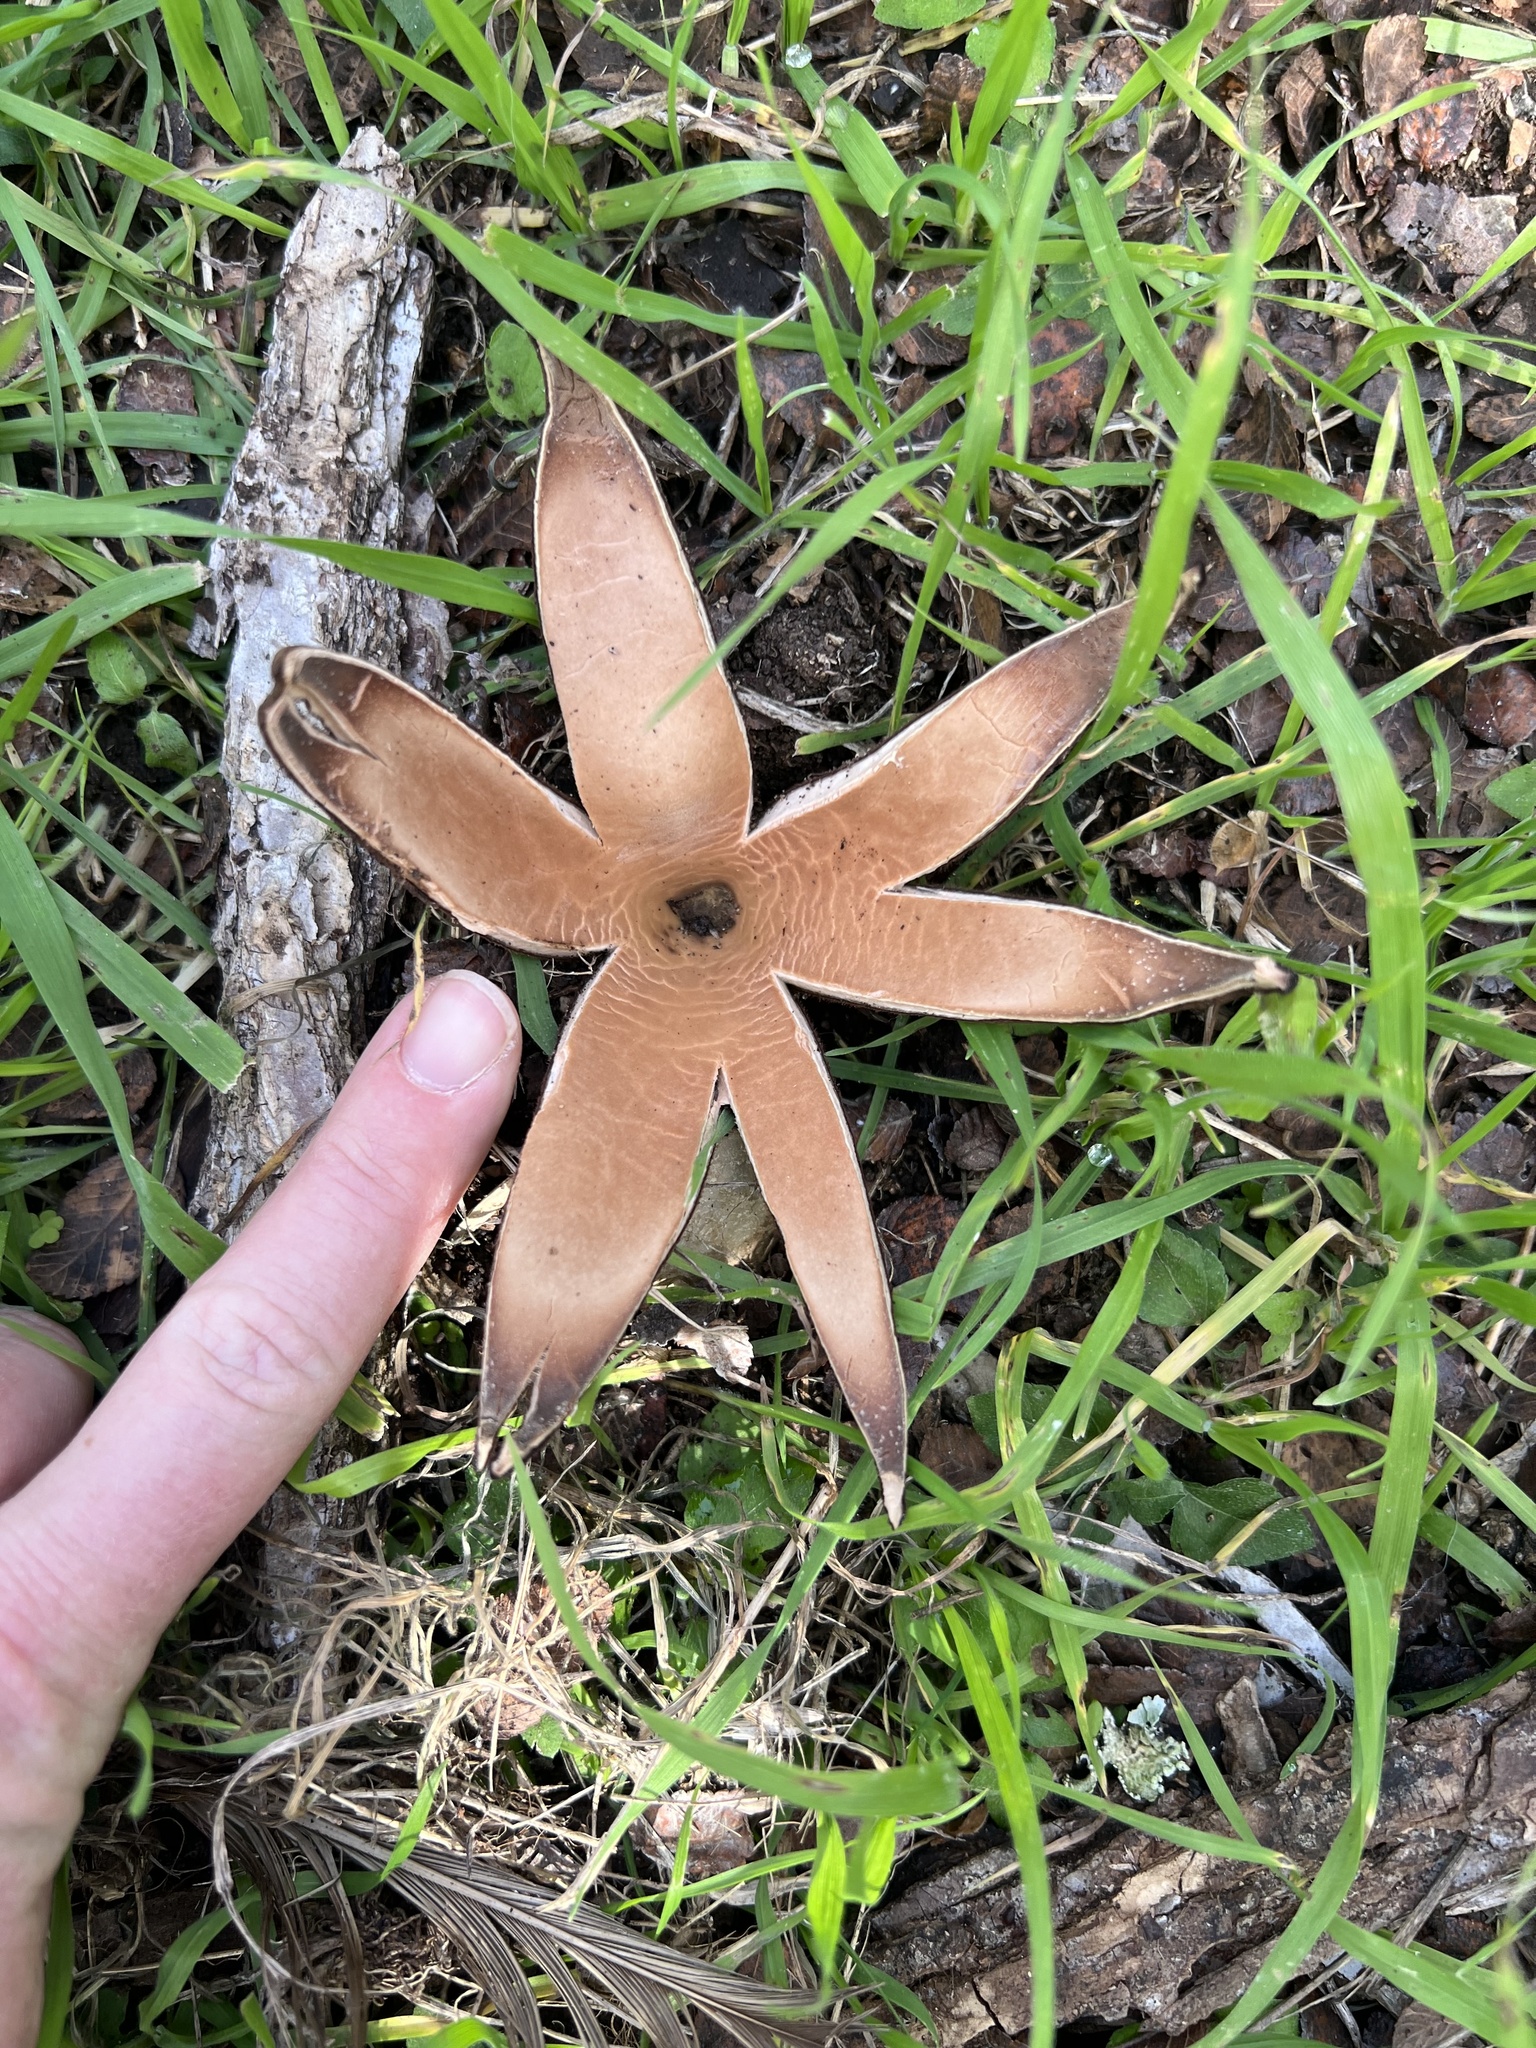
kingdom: Fungi
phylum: Ascomycota
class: Pezizomycetes
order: Pezizales
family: Chorioactidaceae
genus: Chorioactis
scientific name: Chorioactis geaster
